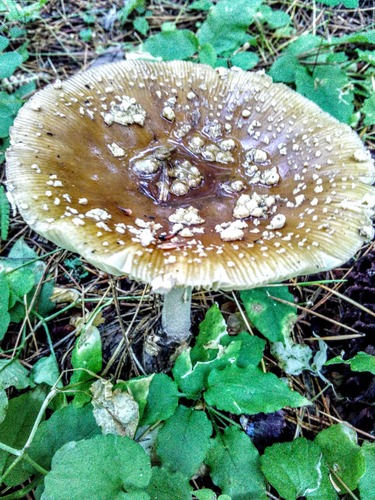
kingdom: Fungi
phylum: Basidiomycota
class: Agaricomycetes
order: Agaricales
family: Amanitaceae
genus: Amanita
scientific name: Amanita
